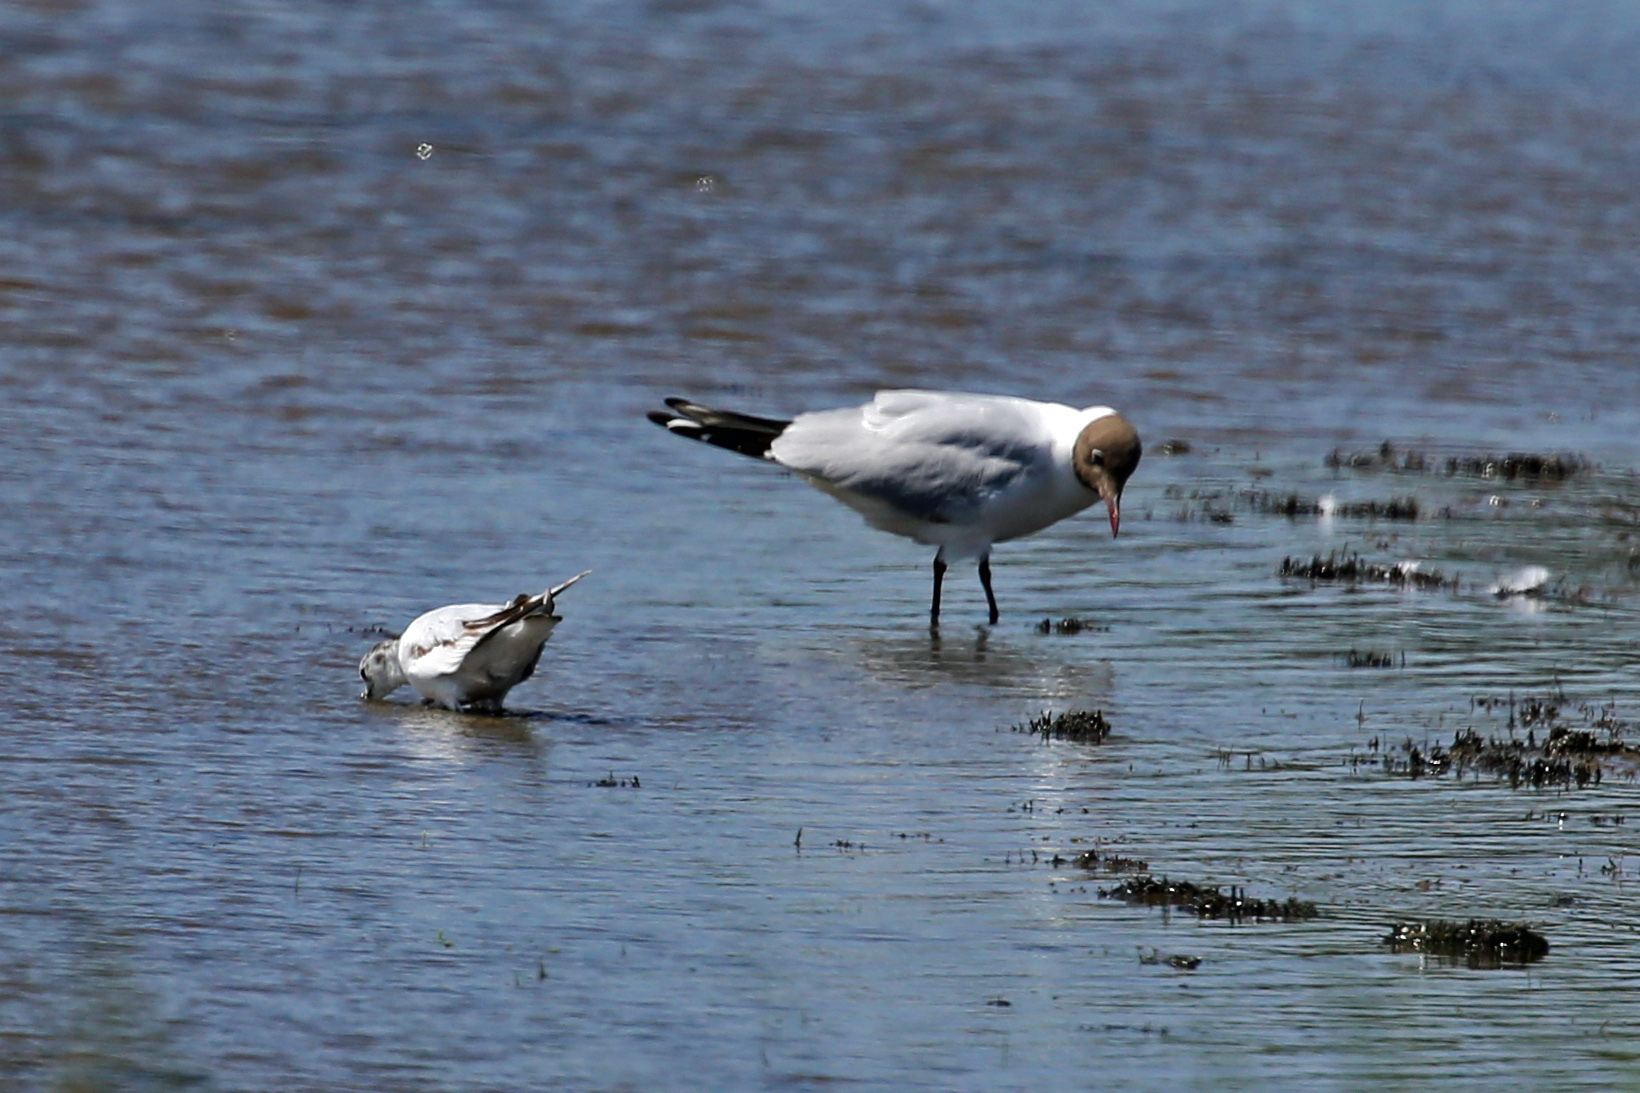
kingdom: Animalia
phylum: Chordata
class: Aves
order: Charadriiformes
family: Laridae
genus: Hydrocoloeus
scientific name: Hydrocoloeus minutus
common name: Little gull
